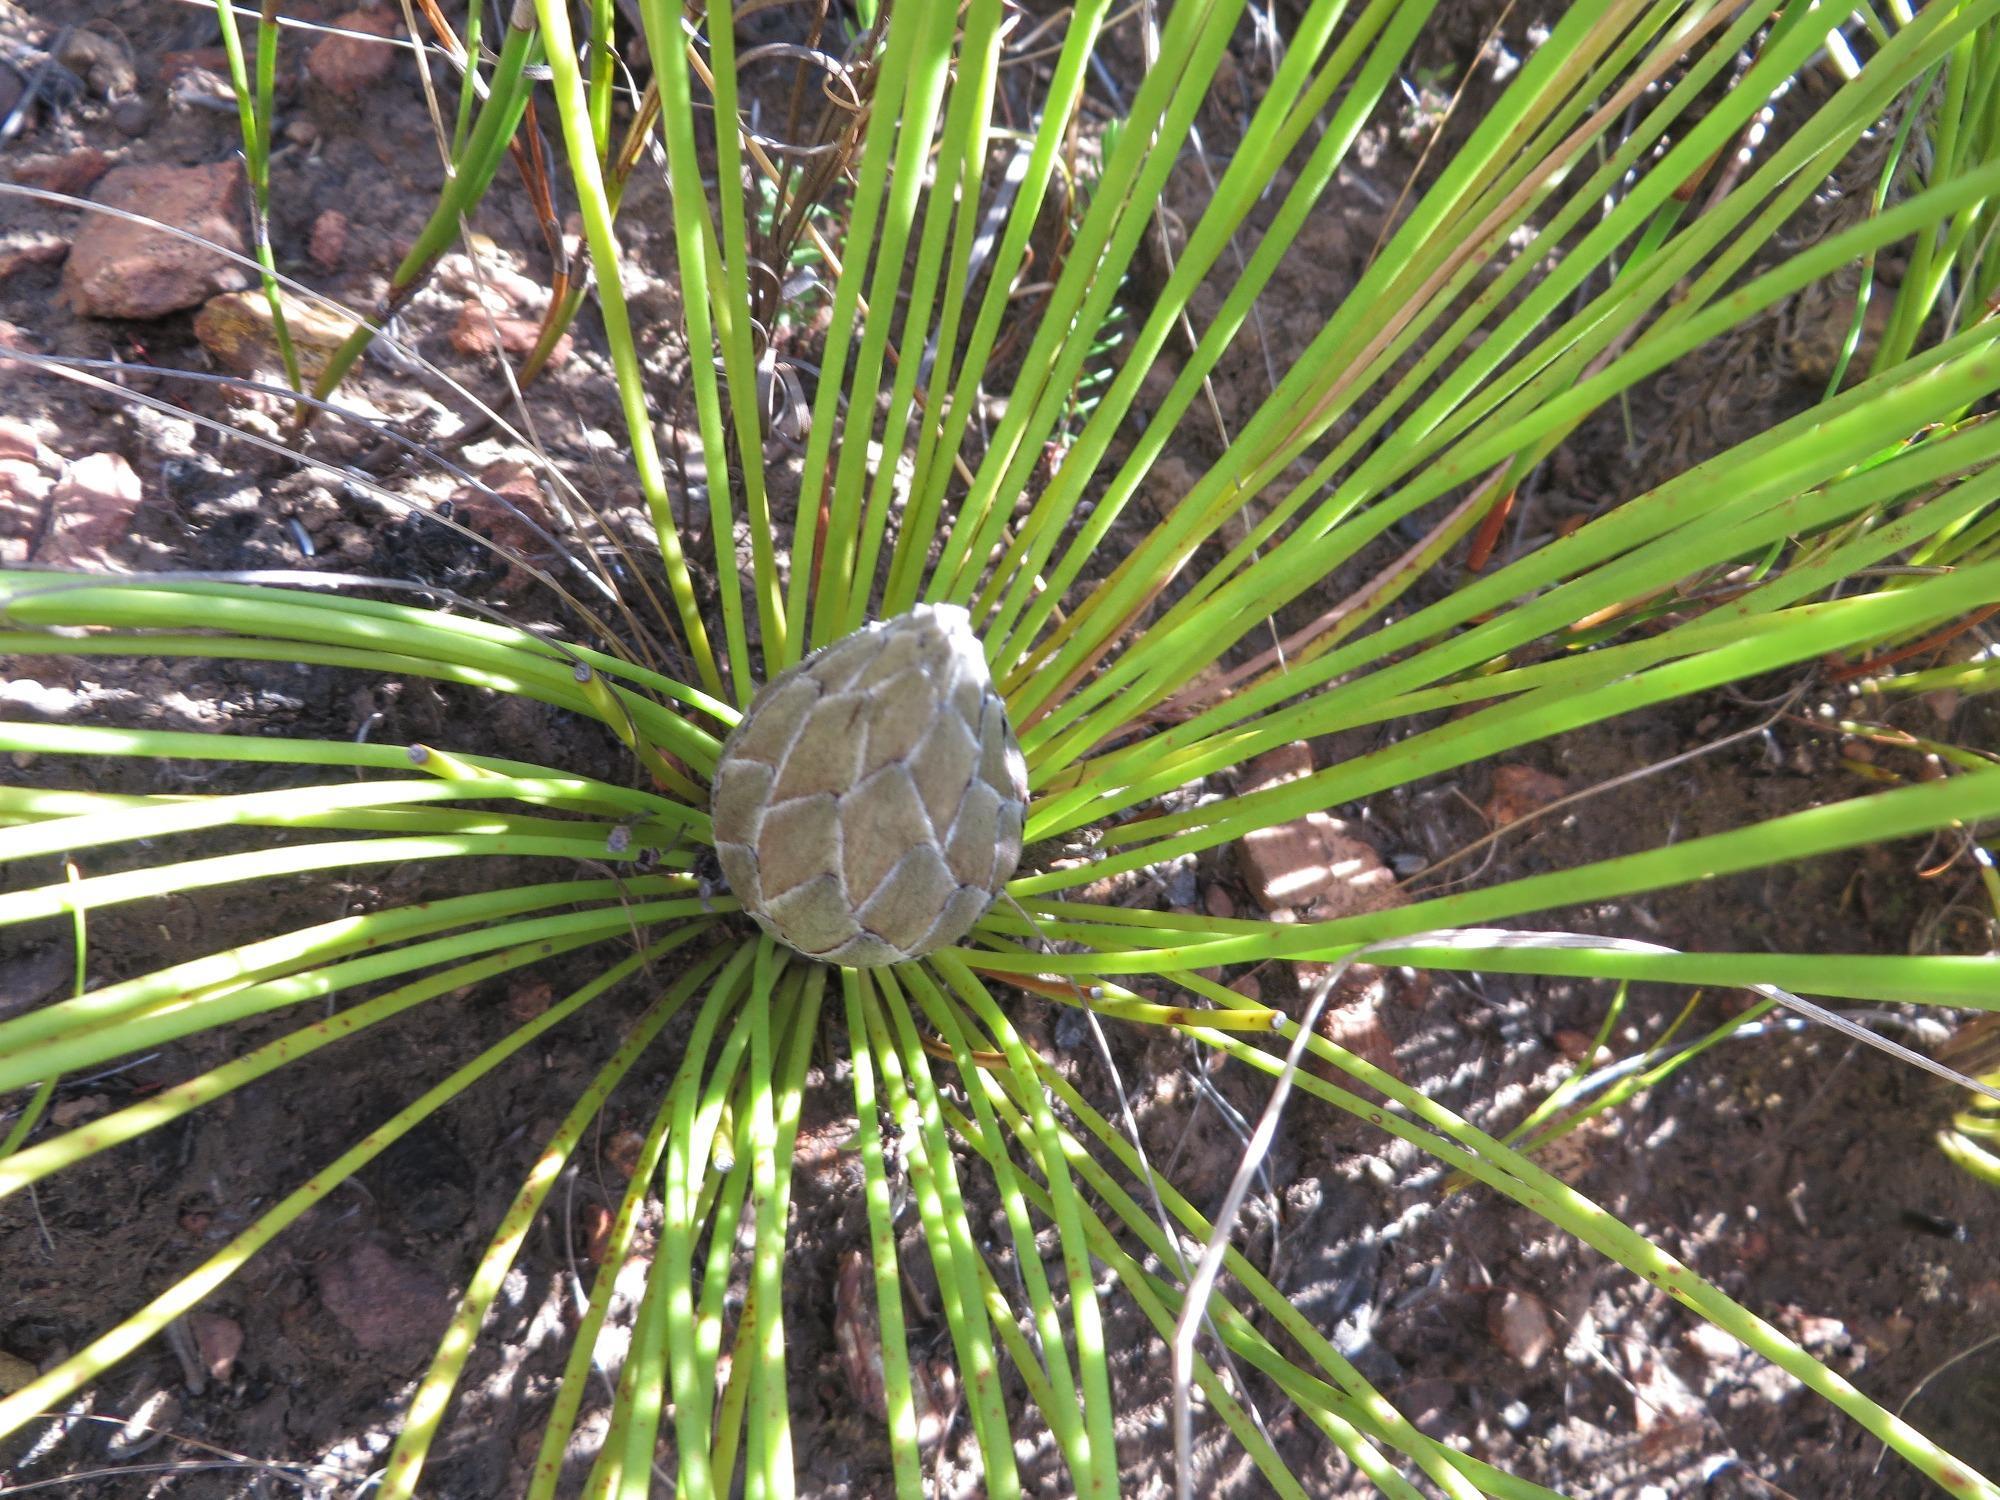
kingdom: Plantae
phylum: Tracheophyta
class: Magnoliopsida
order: Proteales
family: Proteaceae
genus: Protea
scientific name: Protea lorea
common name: Thong-leaf sugarbush
